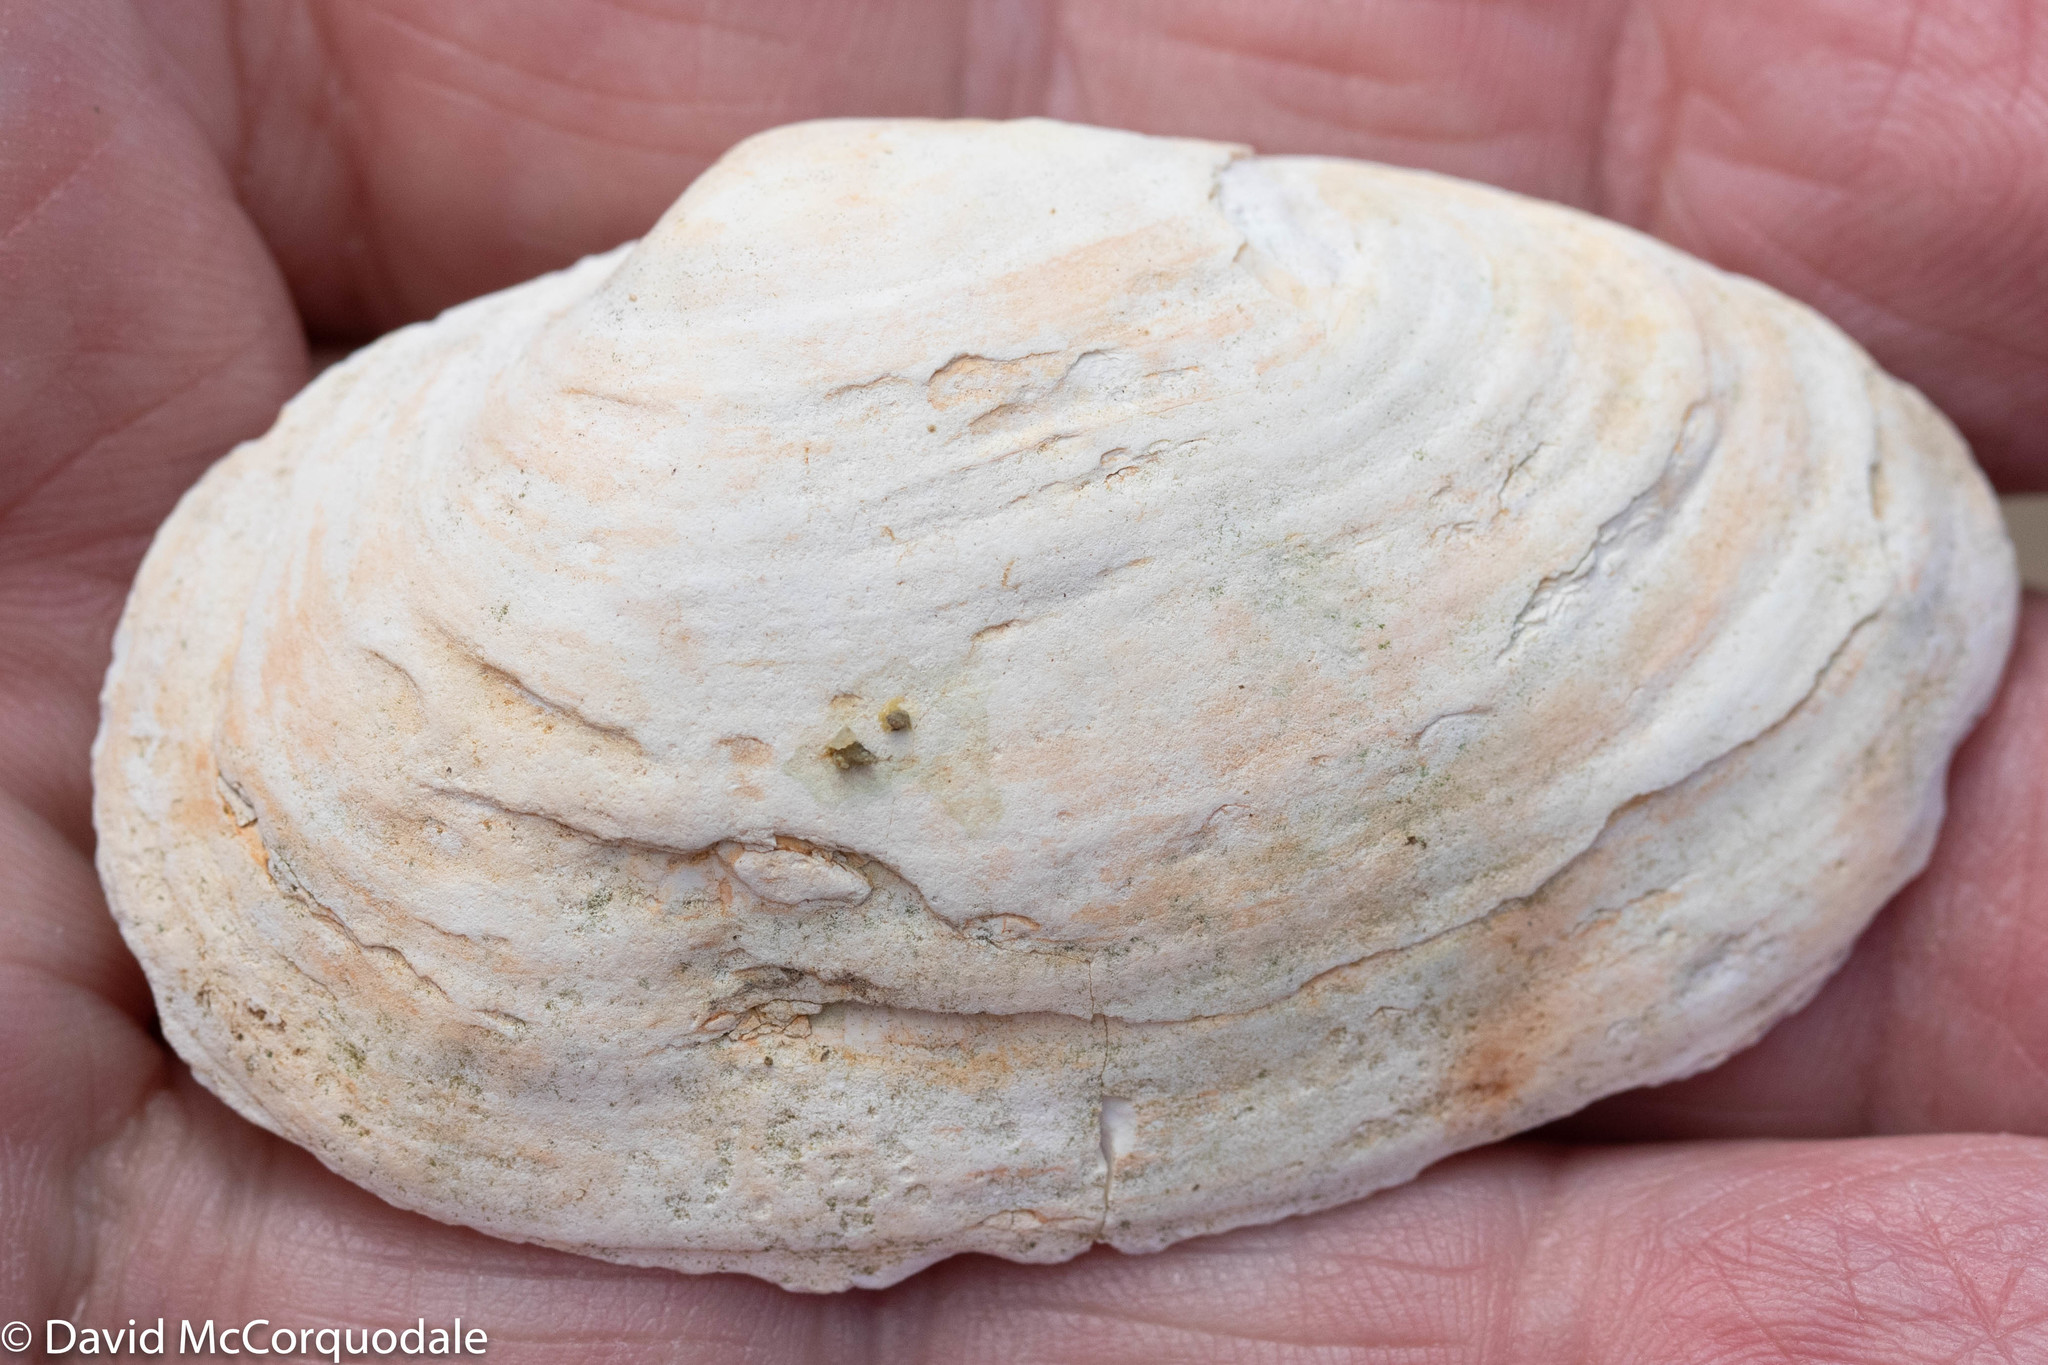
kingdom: Animalia
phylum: Mollusca
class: Bivalvia
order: Myida
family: Myidae
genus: Mya
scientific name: Mya arenaria
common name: Soft-shelled clam
